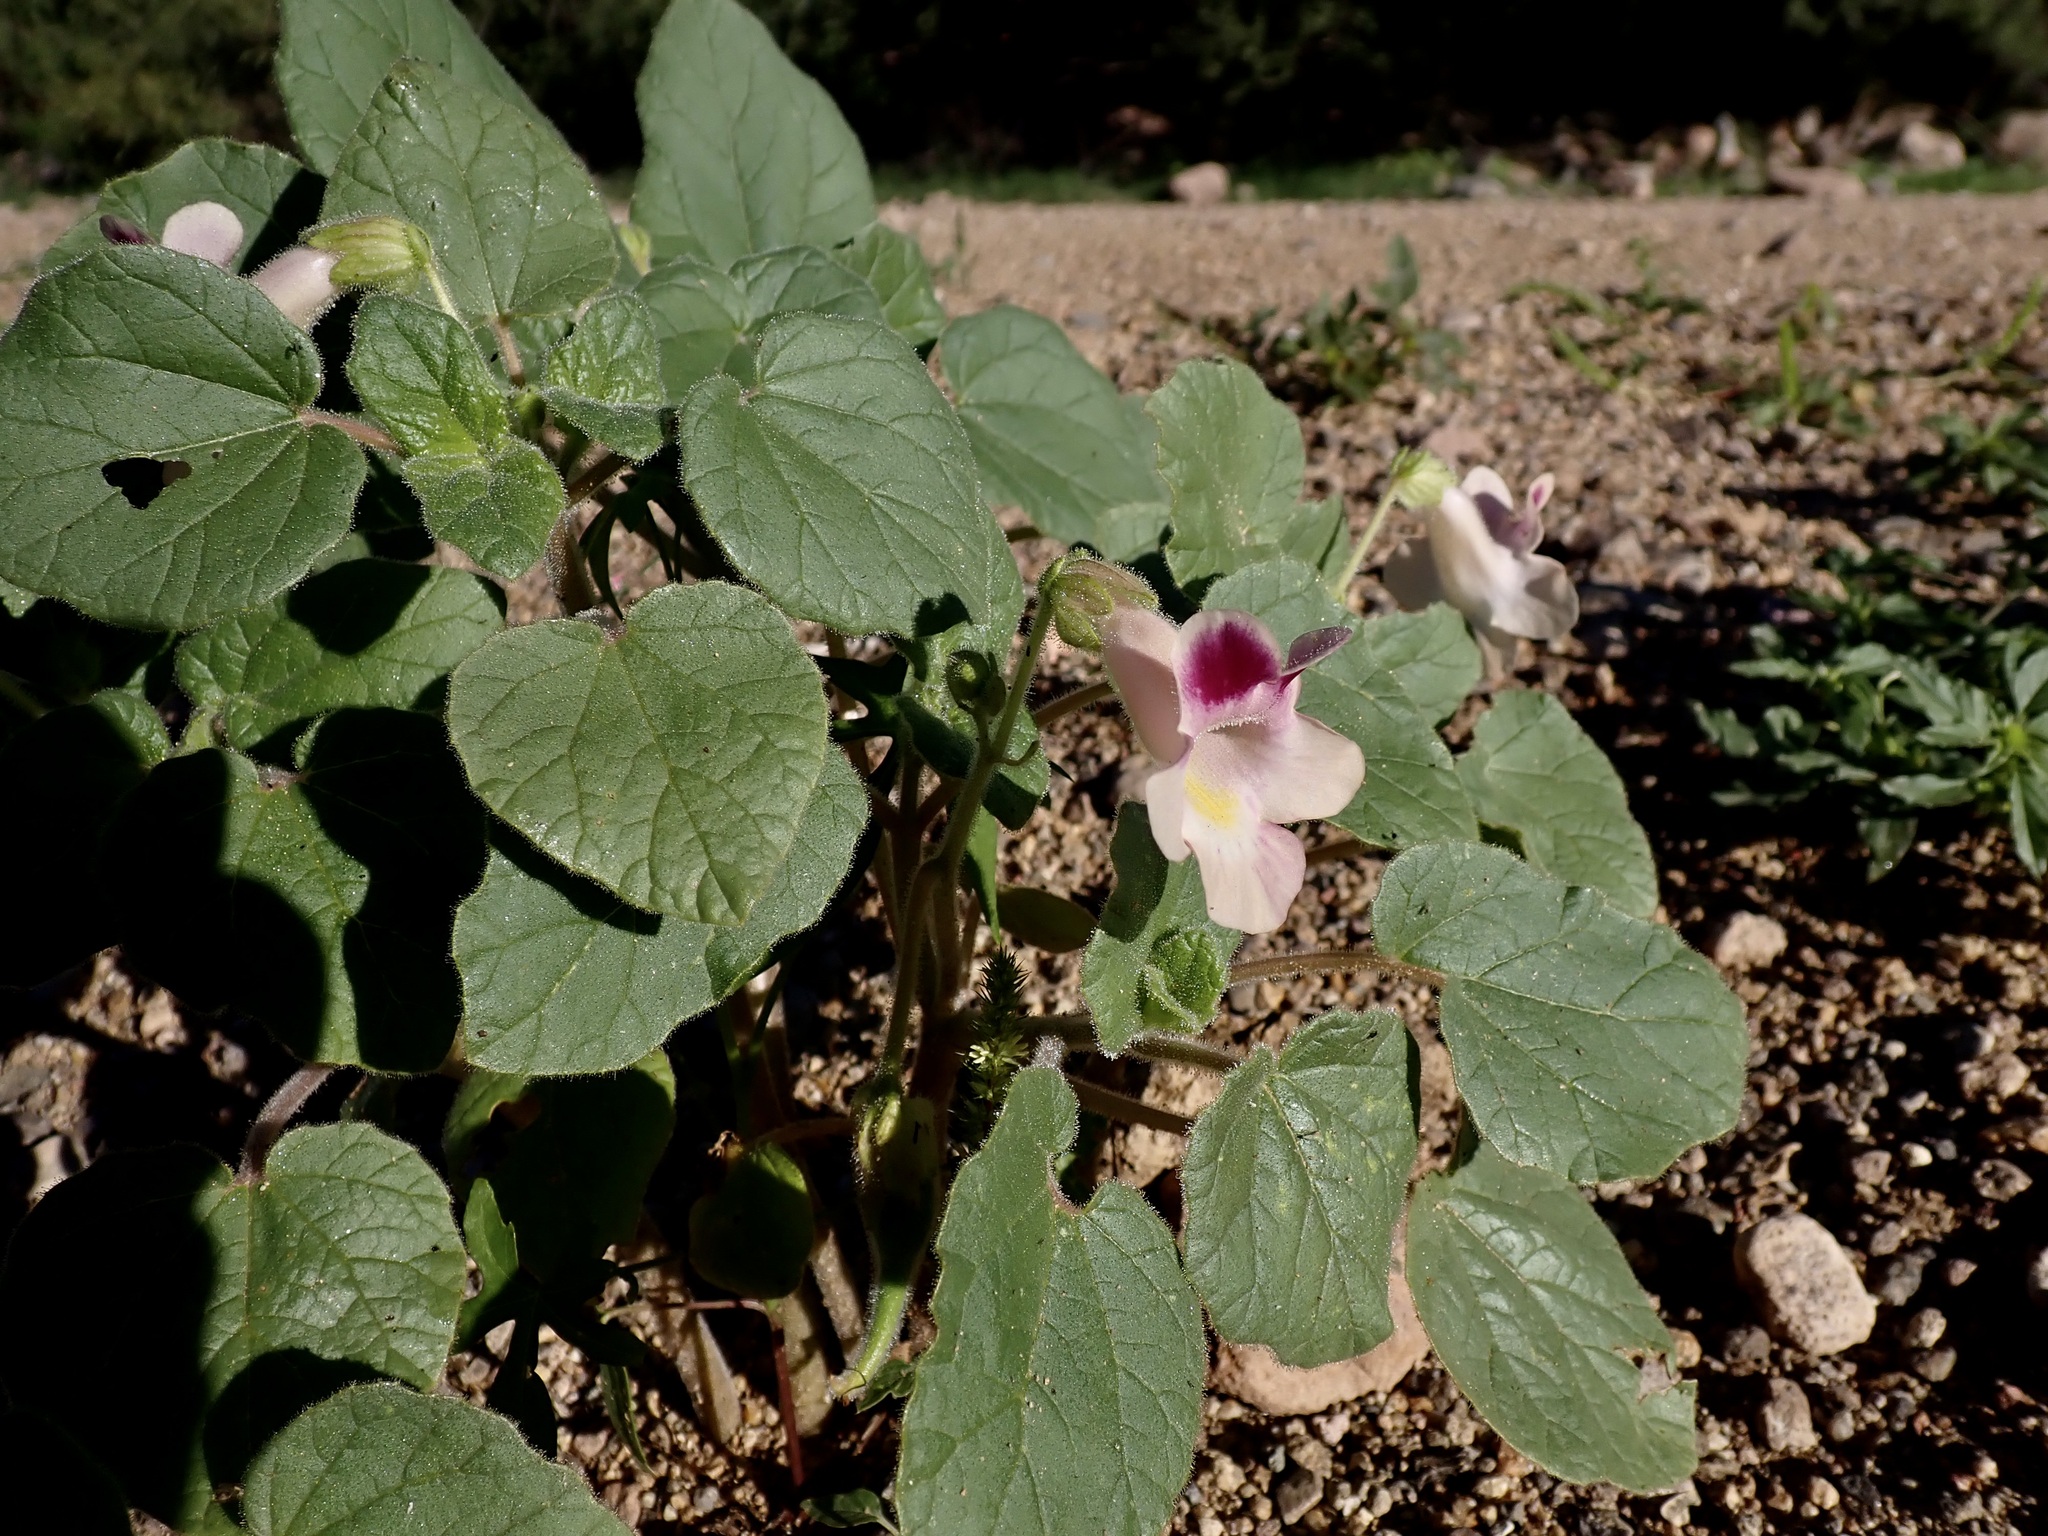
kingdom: Plantae
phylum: Tracheophyta
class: Magnoliopsida
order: Lamiales
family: Martyniaceae
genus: Proboscidea
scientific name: Proboscidea parviflora
